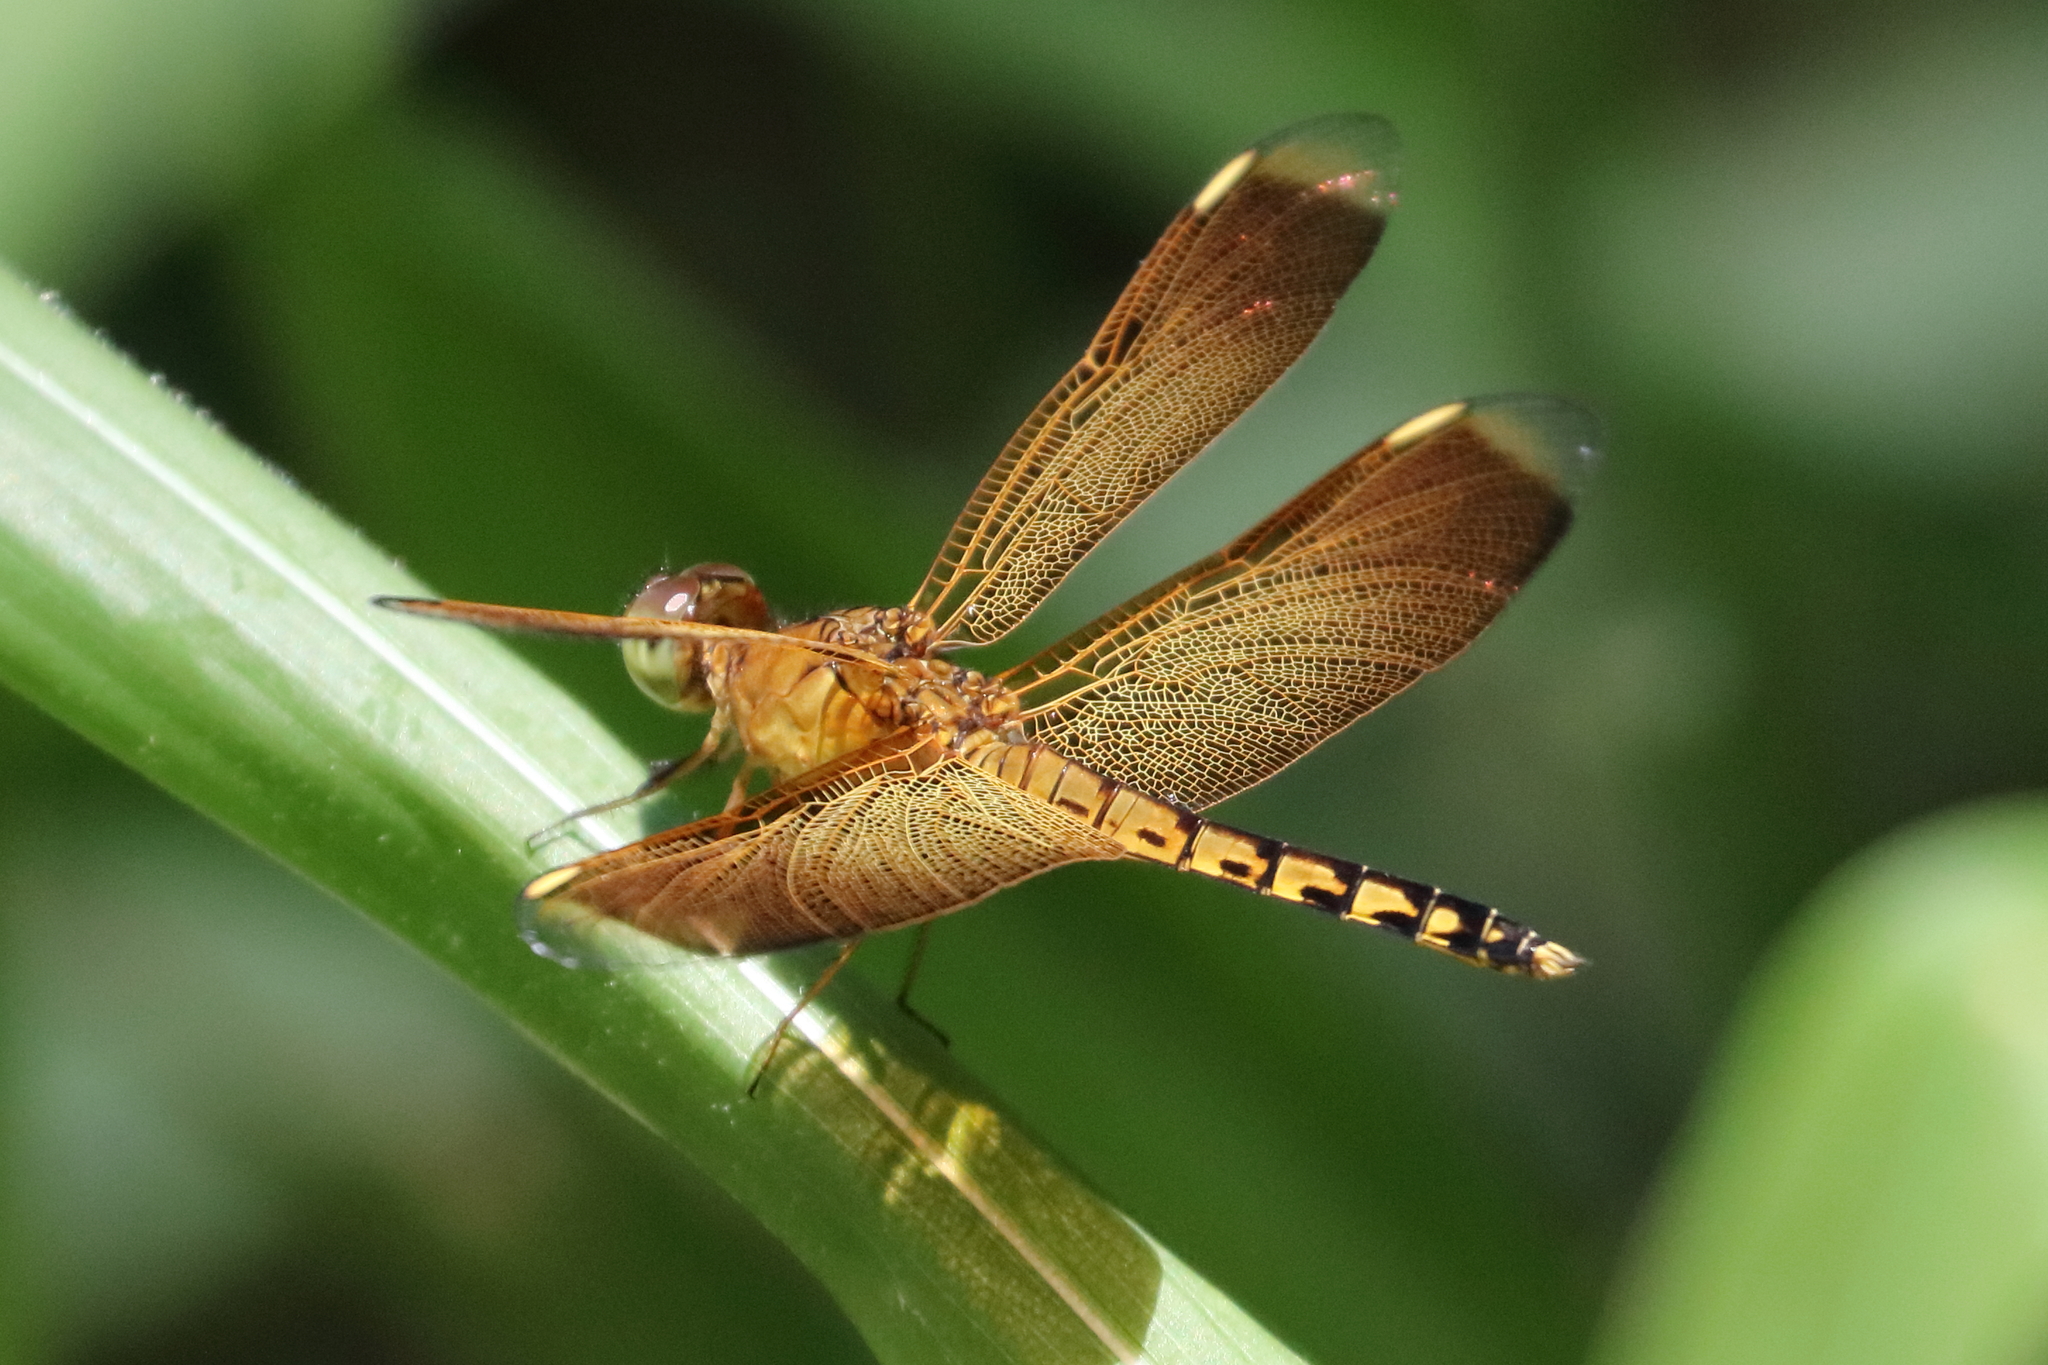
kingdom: Animalia
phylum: Arthropoda
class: Insecta
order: Odonata
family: Libellulidae
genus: Neurothemis
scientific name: Neurothemis terminata
